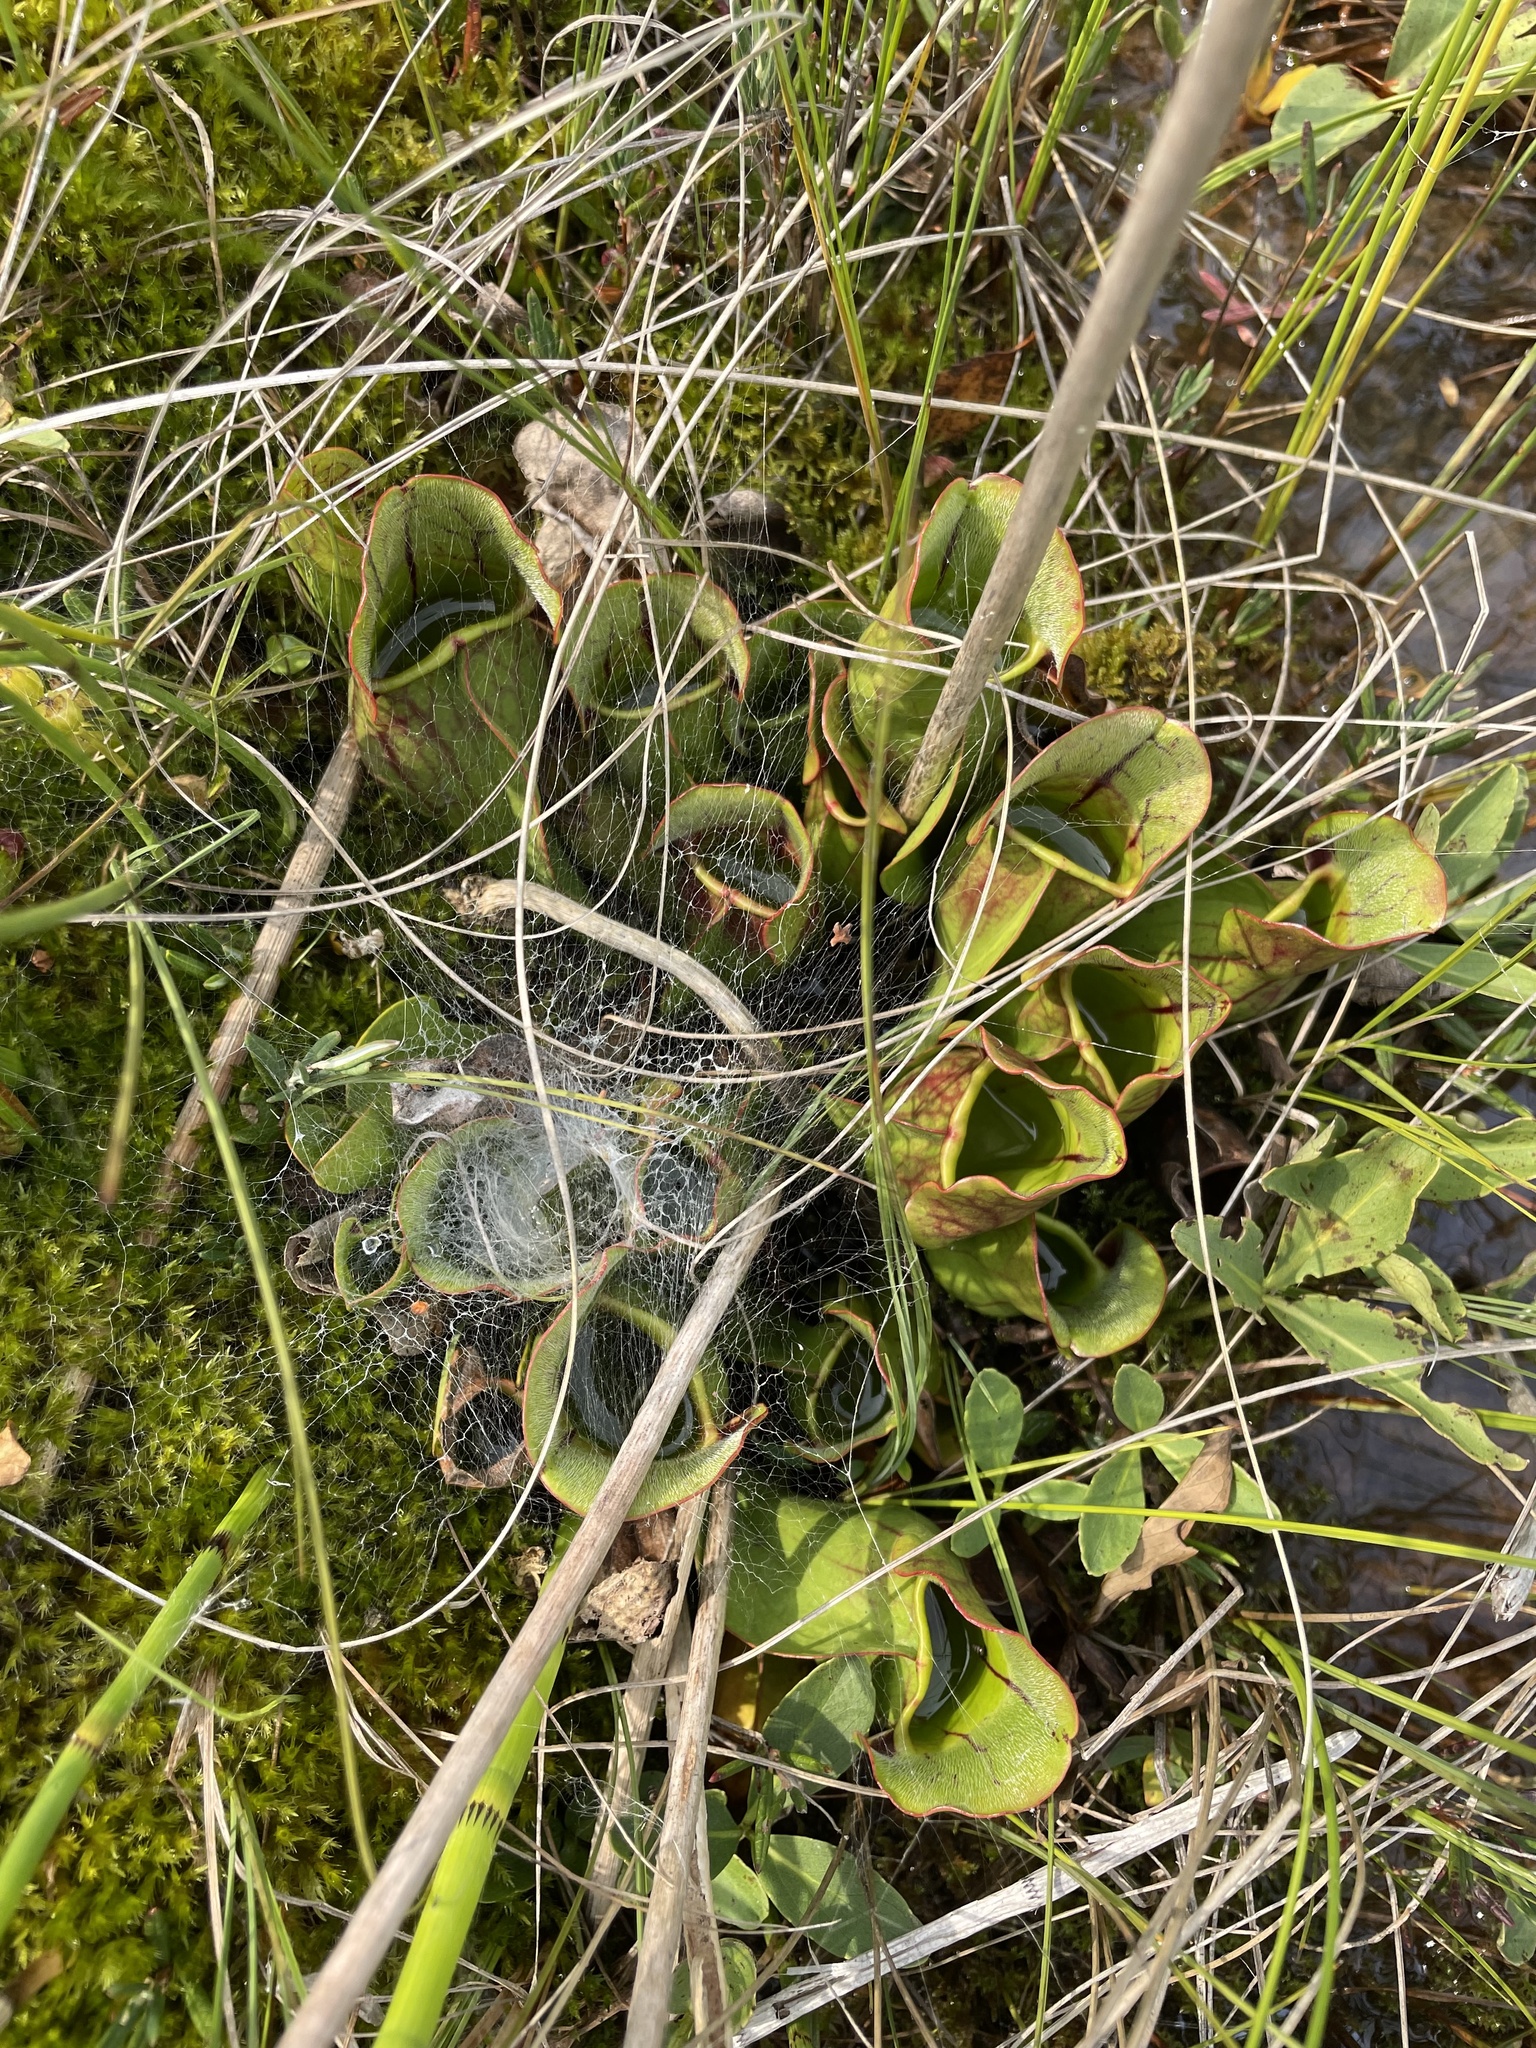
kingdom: Plantae
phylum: Tracheophyta
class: Magnoliopsida
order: Ericales
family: Sarraceniaceae
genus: Sarracenia
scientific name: Sarracenia purpurea
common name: Pitcherplant
